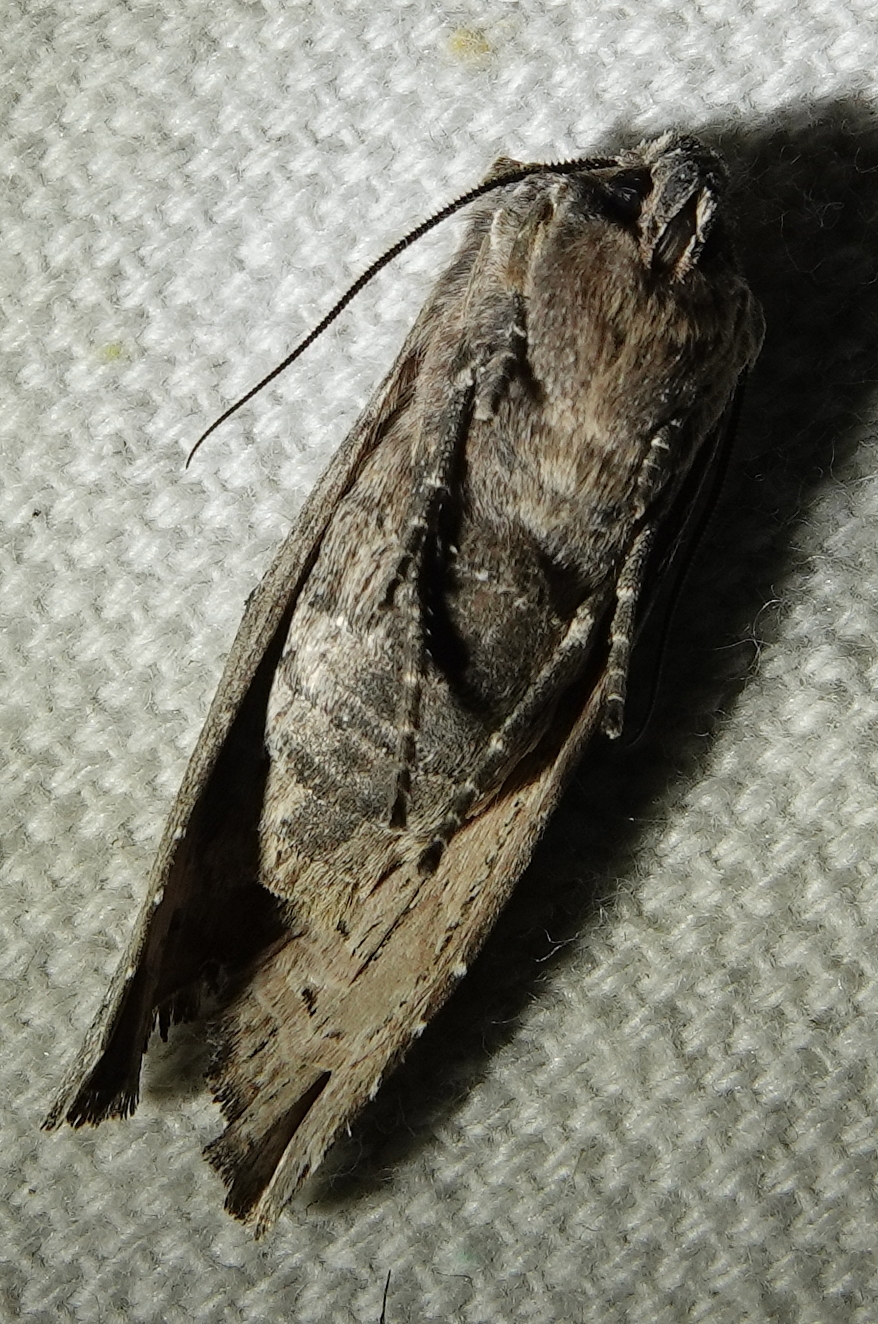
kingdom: Animalia
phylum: Arthropoda
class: Insecta
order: Lepidoptera
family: Noctuidae
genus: Xylena
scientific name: Xylena brucei
